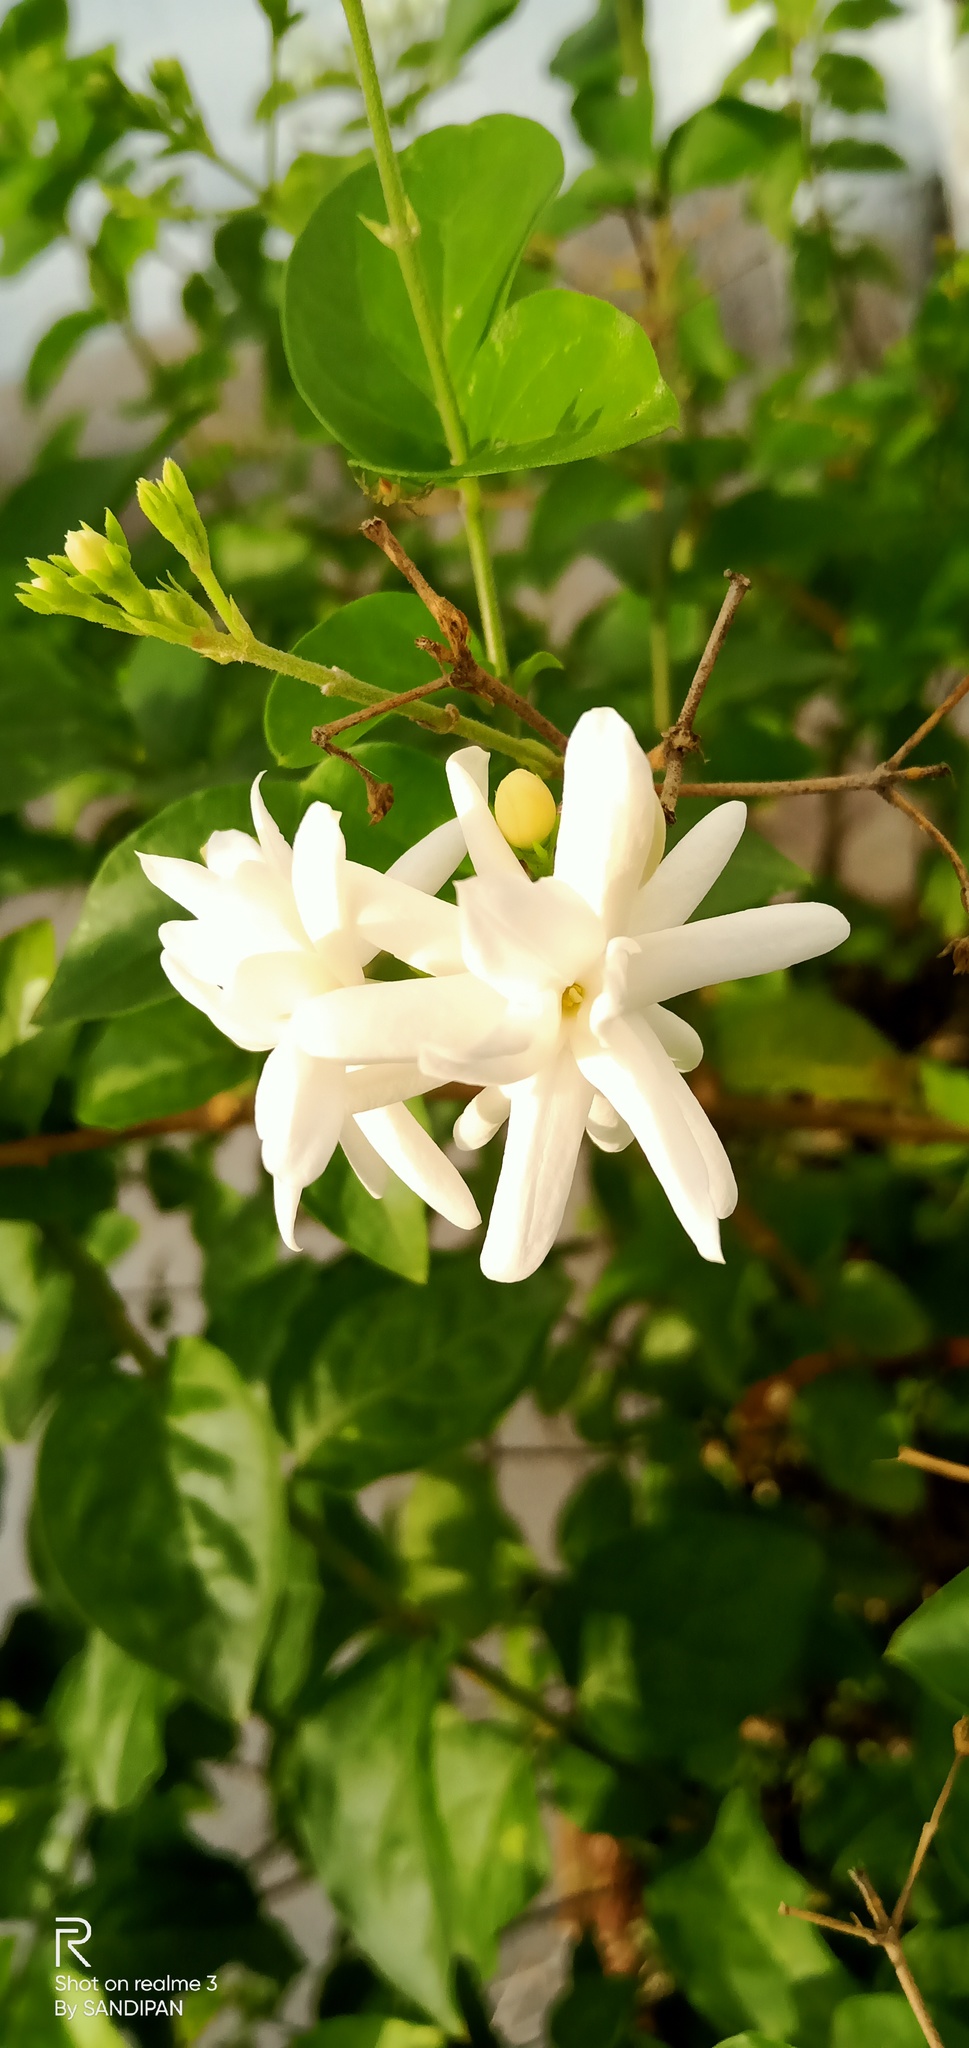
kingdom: Plantae
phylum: Tracheophyta
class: Magnoliopsida
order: Lamiales
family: Oleaceae
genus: Jasminum
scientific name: Jasminum sambac
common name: Arabian jasmine
